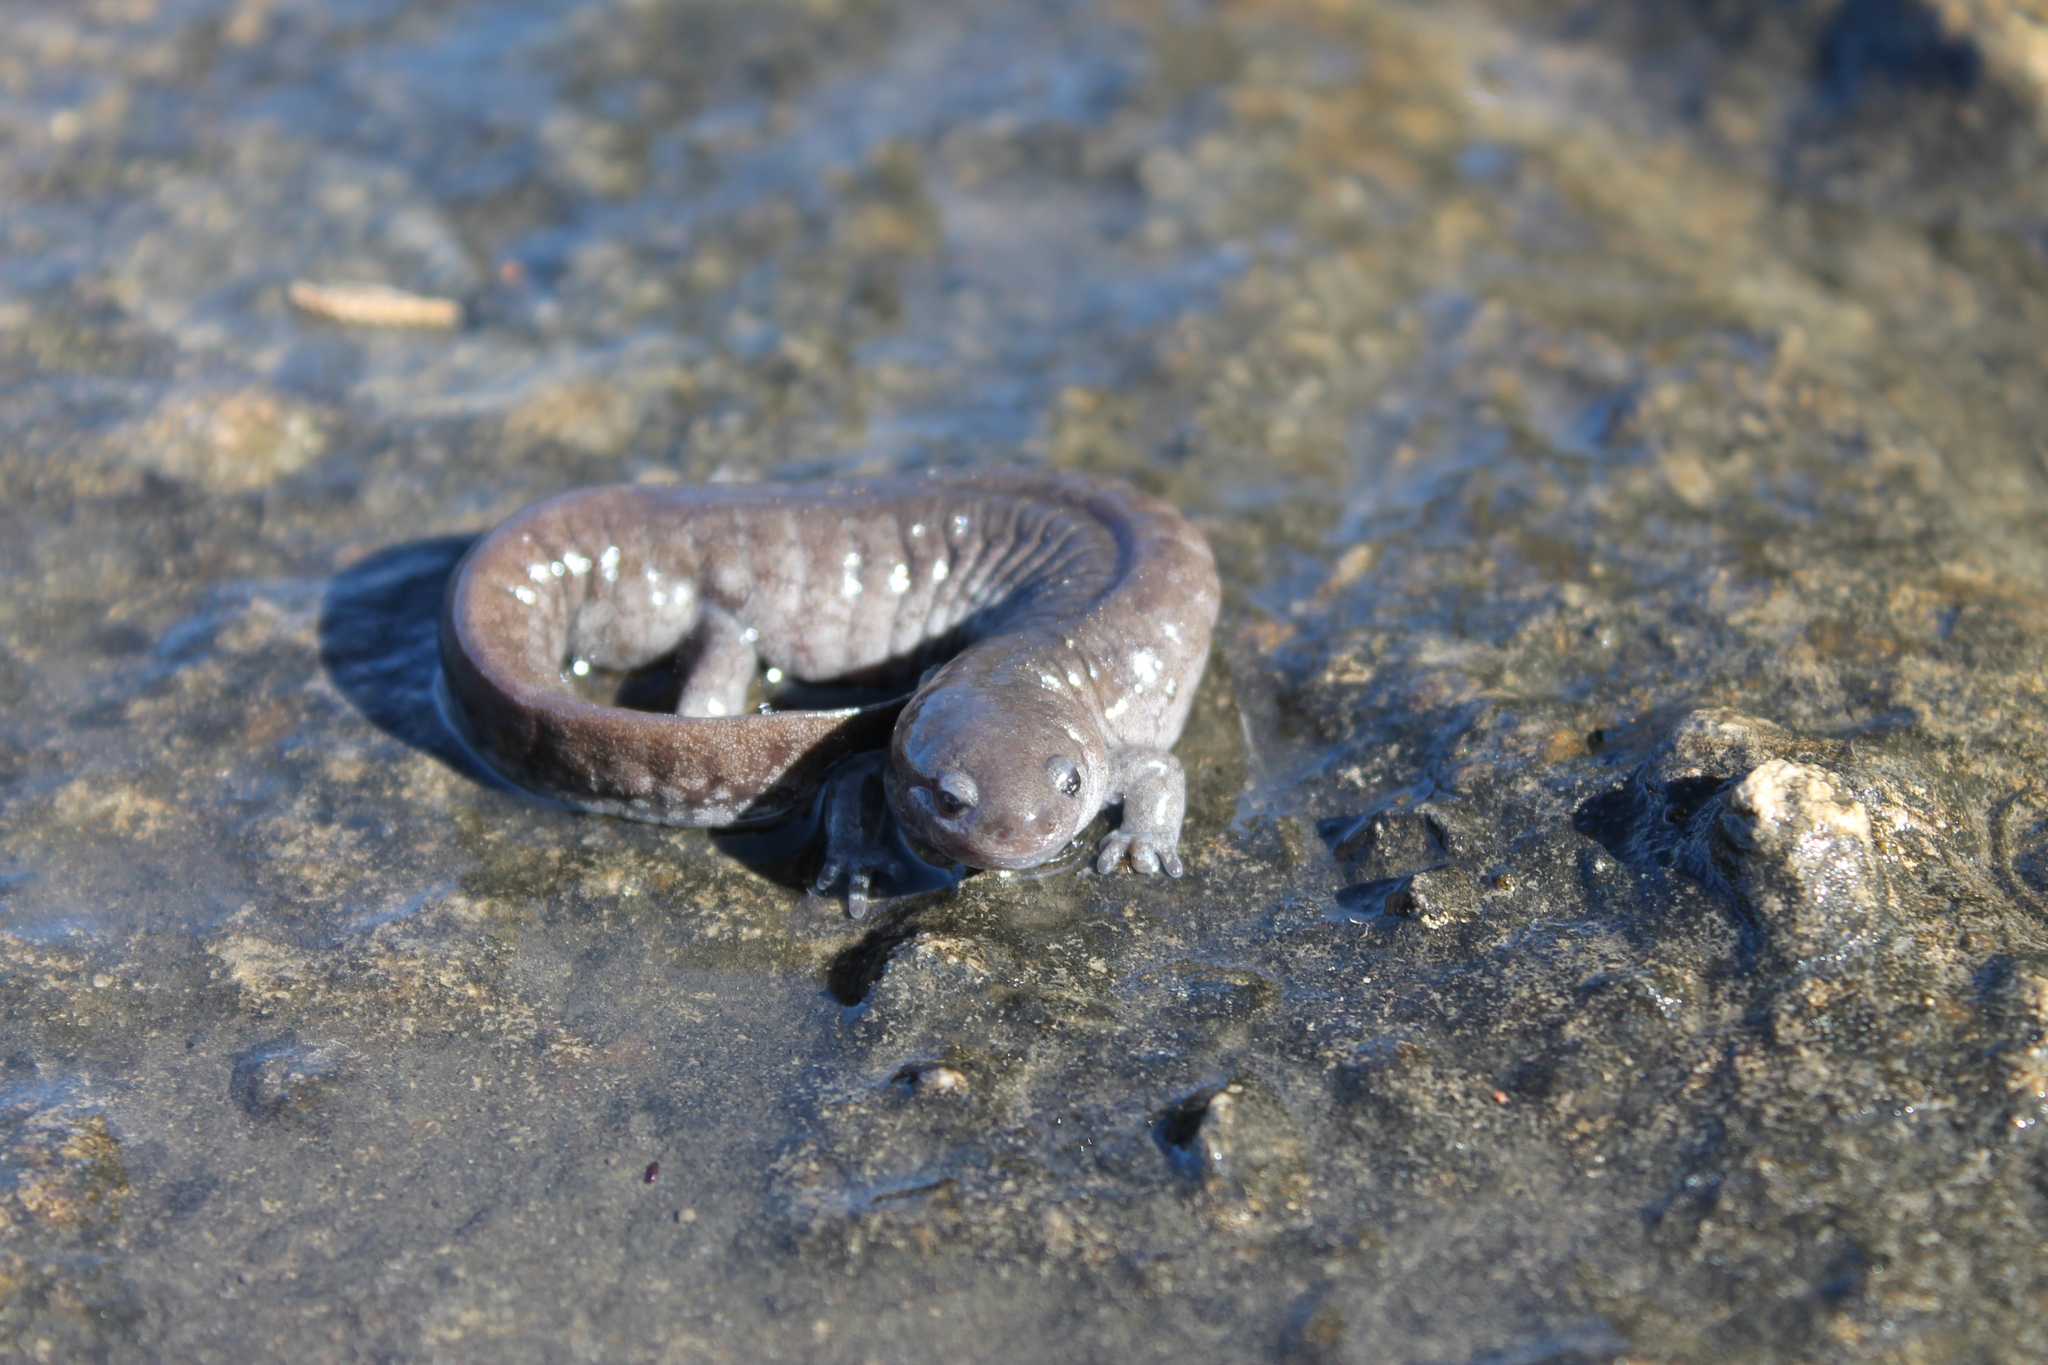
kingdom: Animalia
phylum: Chordata
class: Amphibia
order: Caudata
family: Ambystomatidae
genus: Ambystoma
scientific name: Ambystoma barbouri
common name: Streamside salamander
